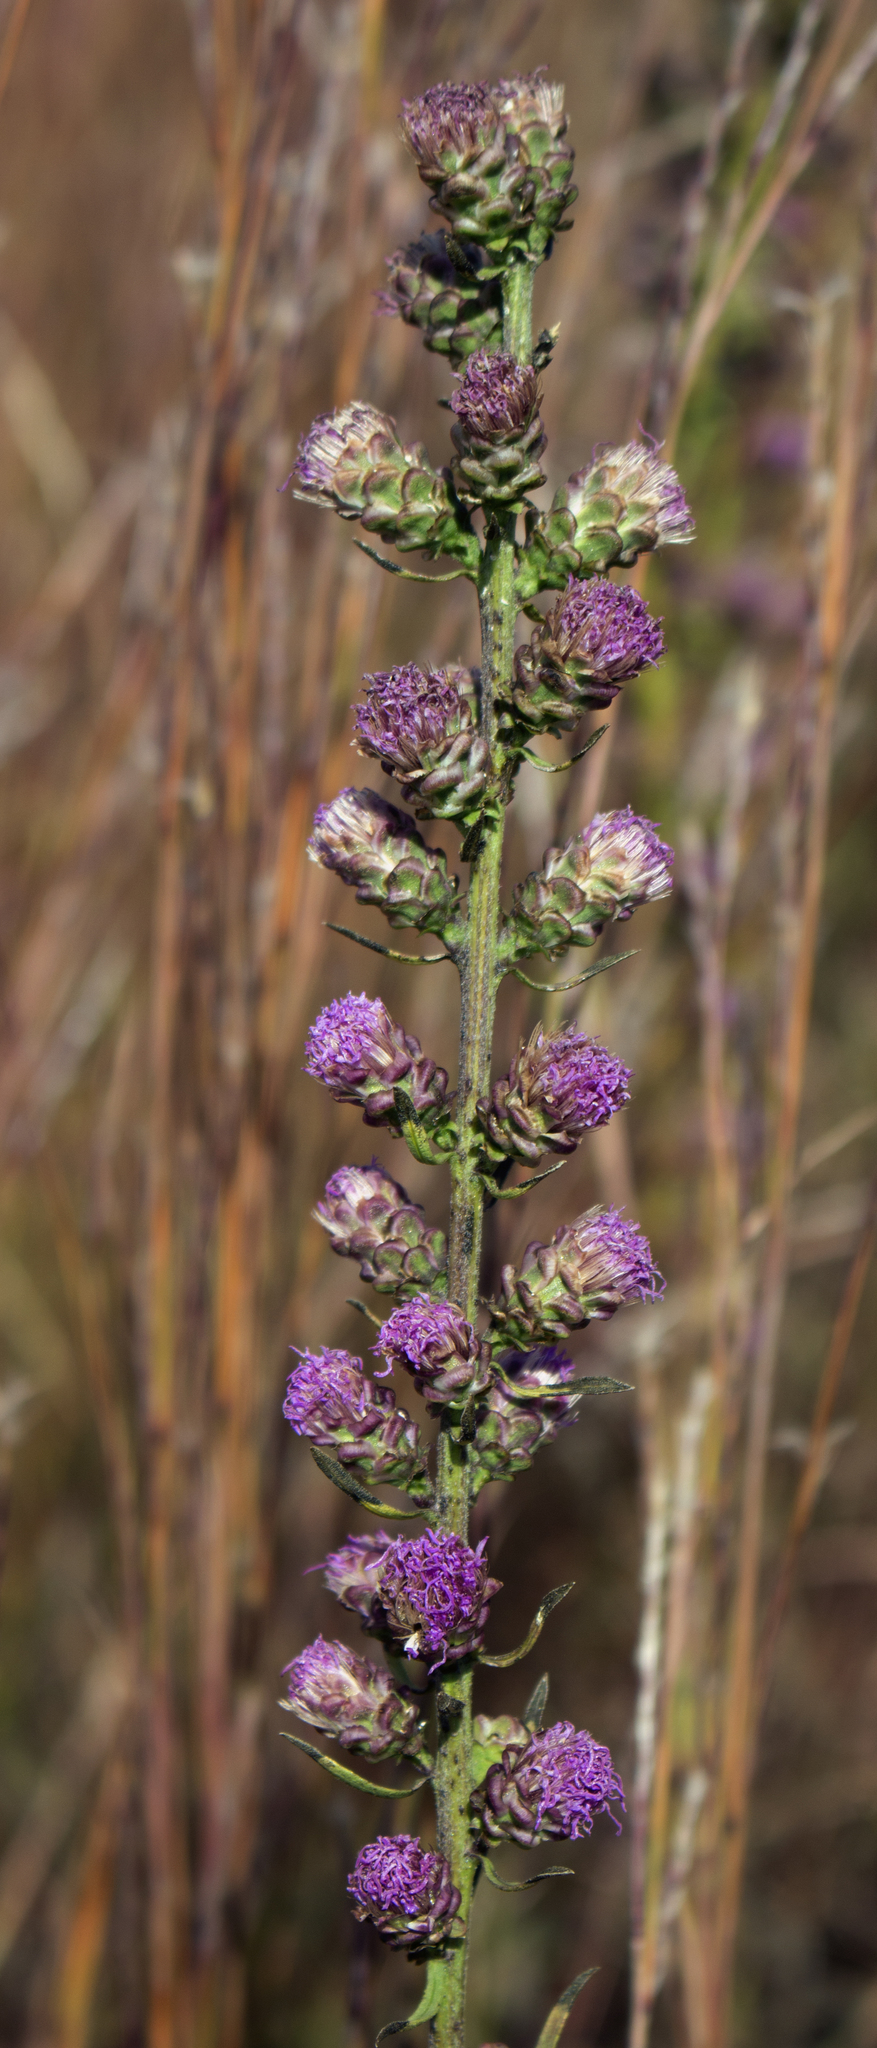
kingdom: Plantae
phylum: Tracheophyta
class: Magnoliopsida
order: Asterales
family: Asteraceae
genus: Liatris
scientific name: Liatris aspera
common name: Lacerate blazing-star
